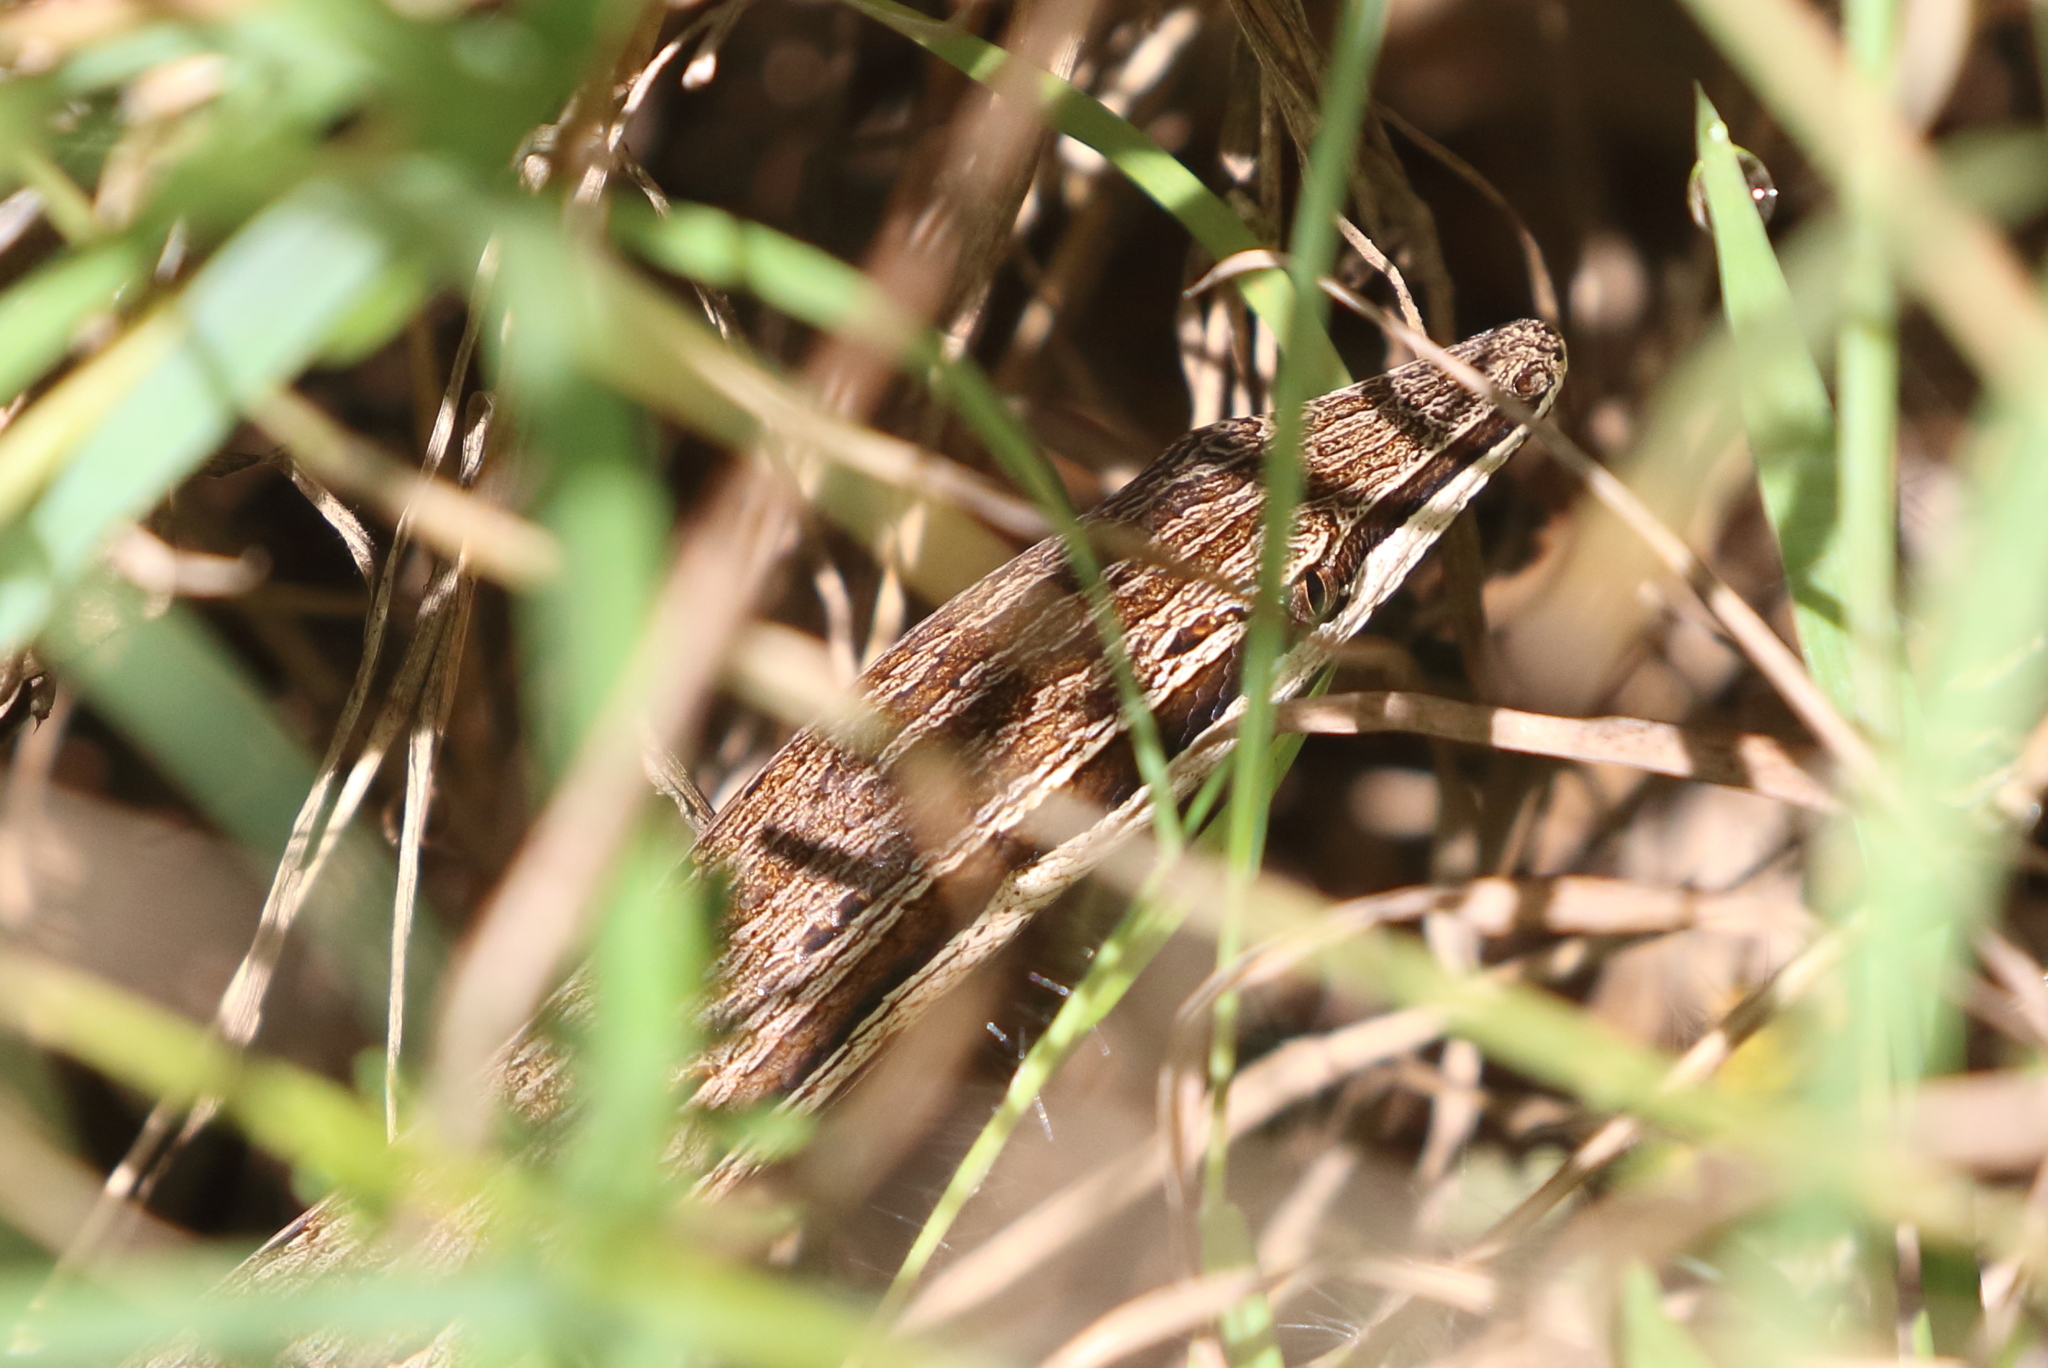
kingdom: Animalia
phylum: Chordata
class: Squamata
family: Pygopodidae
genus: Lialis
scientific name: Lialis burtonis
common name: Burton's legless lizard
